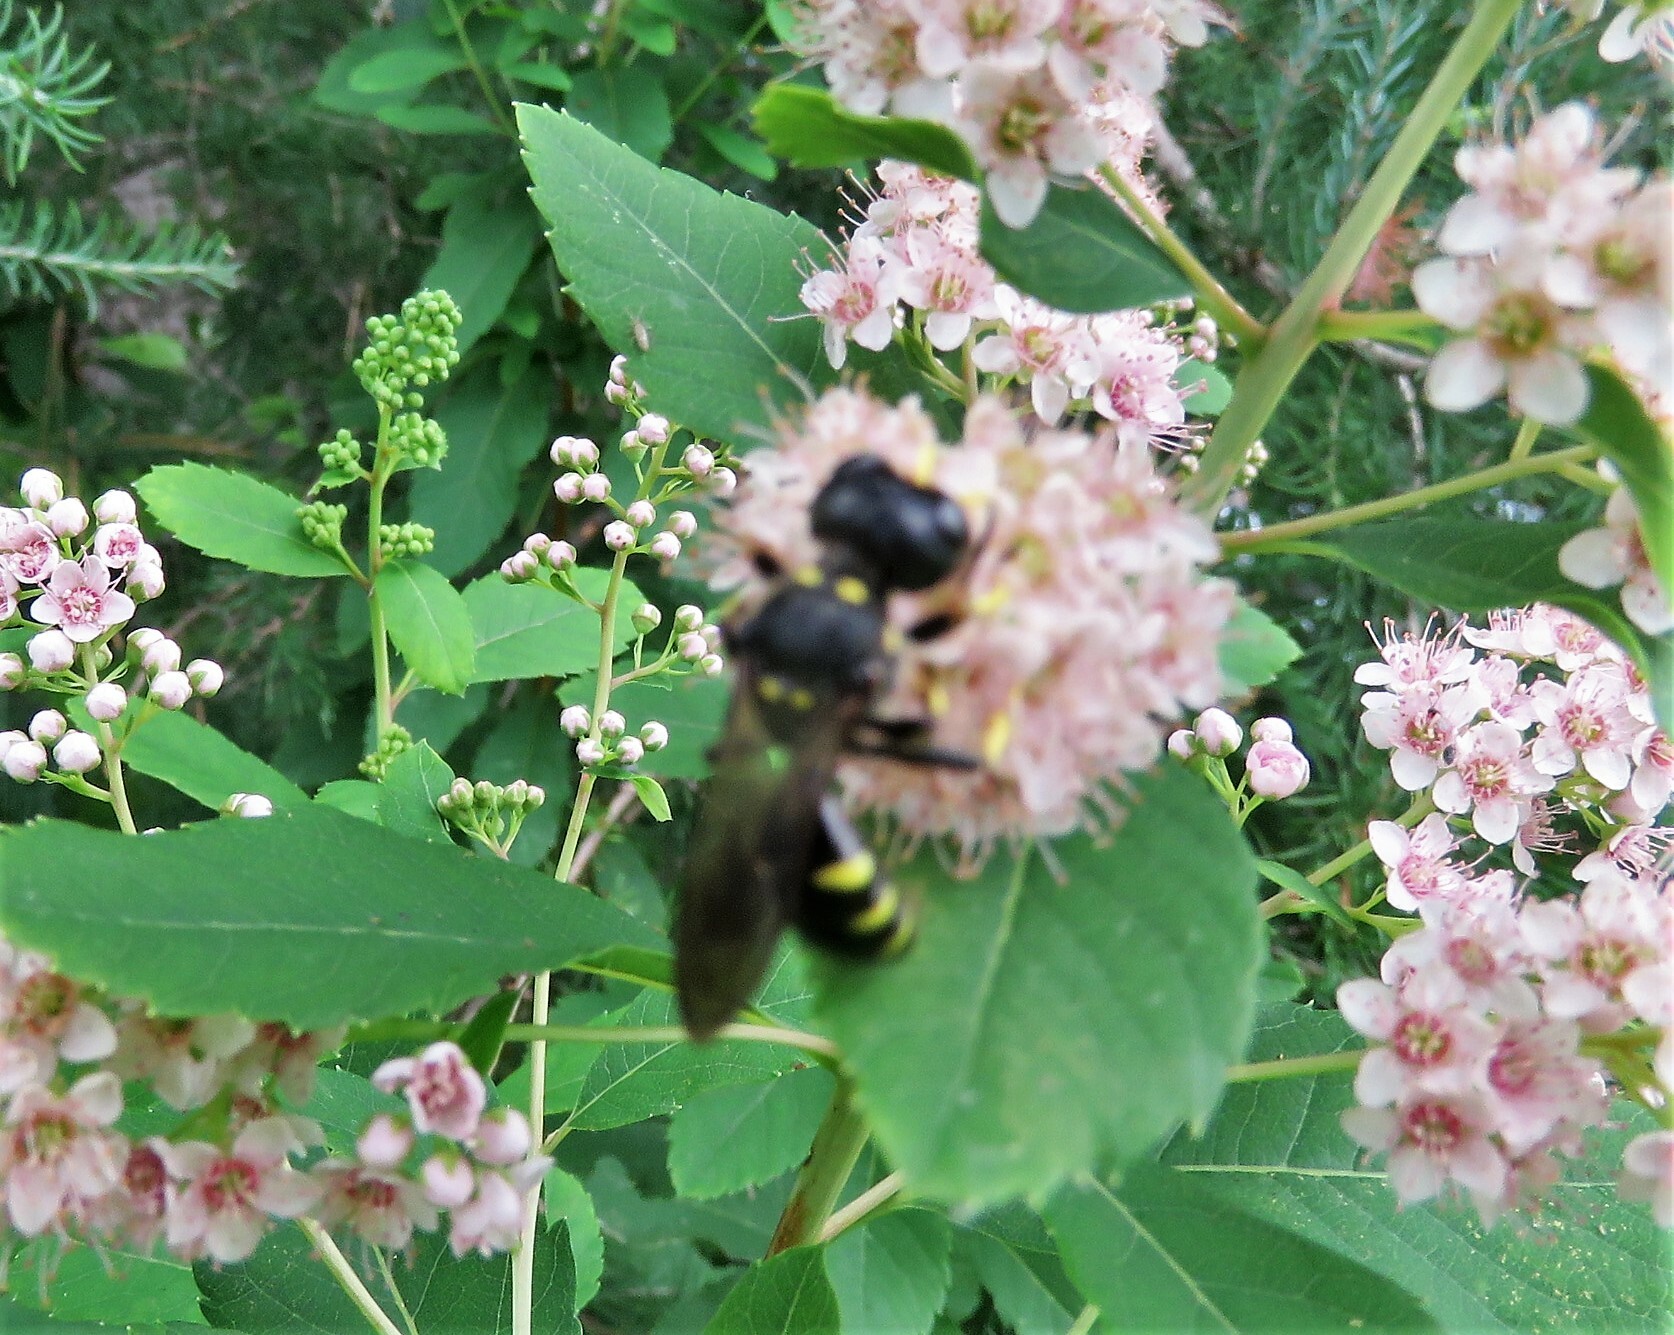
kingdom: Animalia
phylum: Arthropoda
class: Insecta
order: Hymenoptera
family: Crabronidae
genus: Ectemnius
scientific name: Ectemnius maculosus
